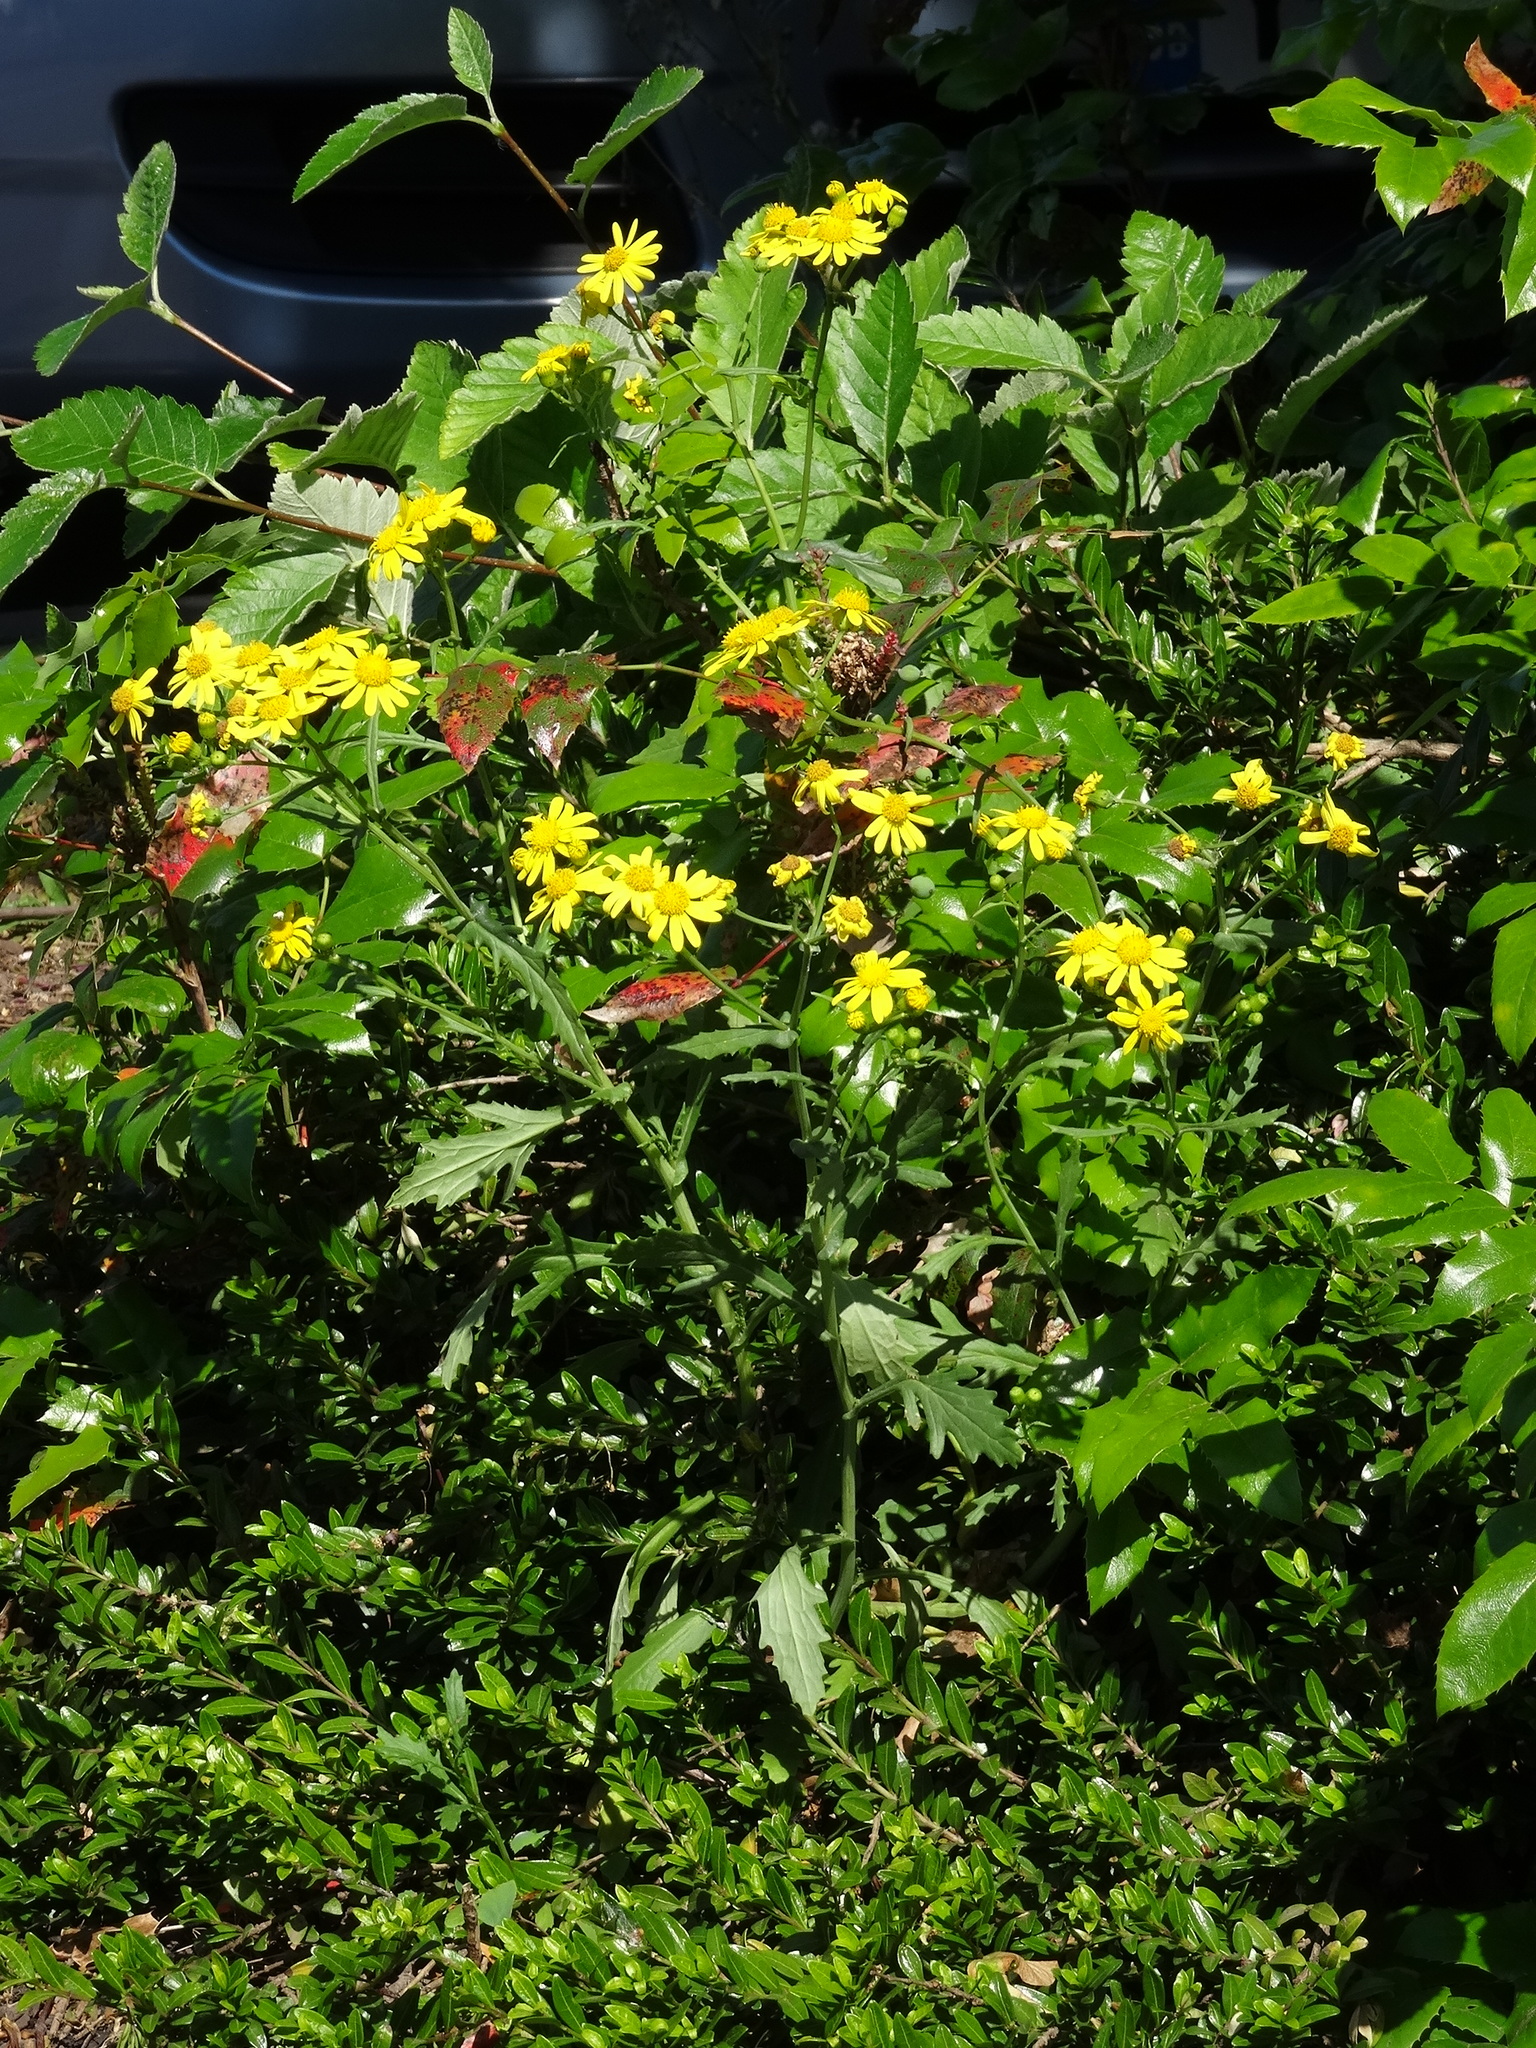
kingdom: Plantae
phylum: Tracheophyta
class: Magnoliopsida
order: Asterales
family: Asteraceae
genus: Senecio
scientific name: Senecio squalidus
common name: Oxford ragwort
